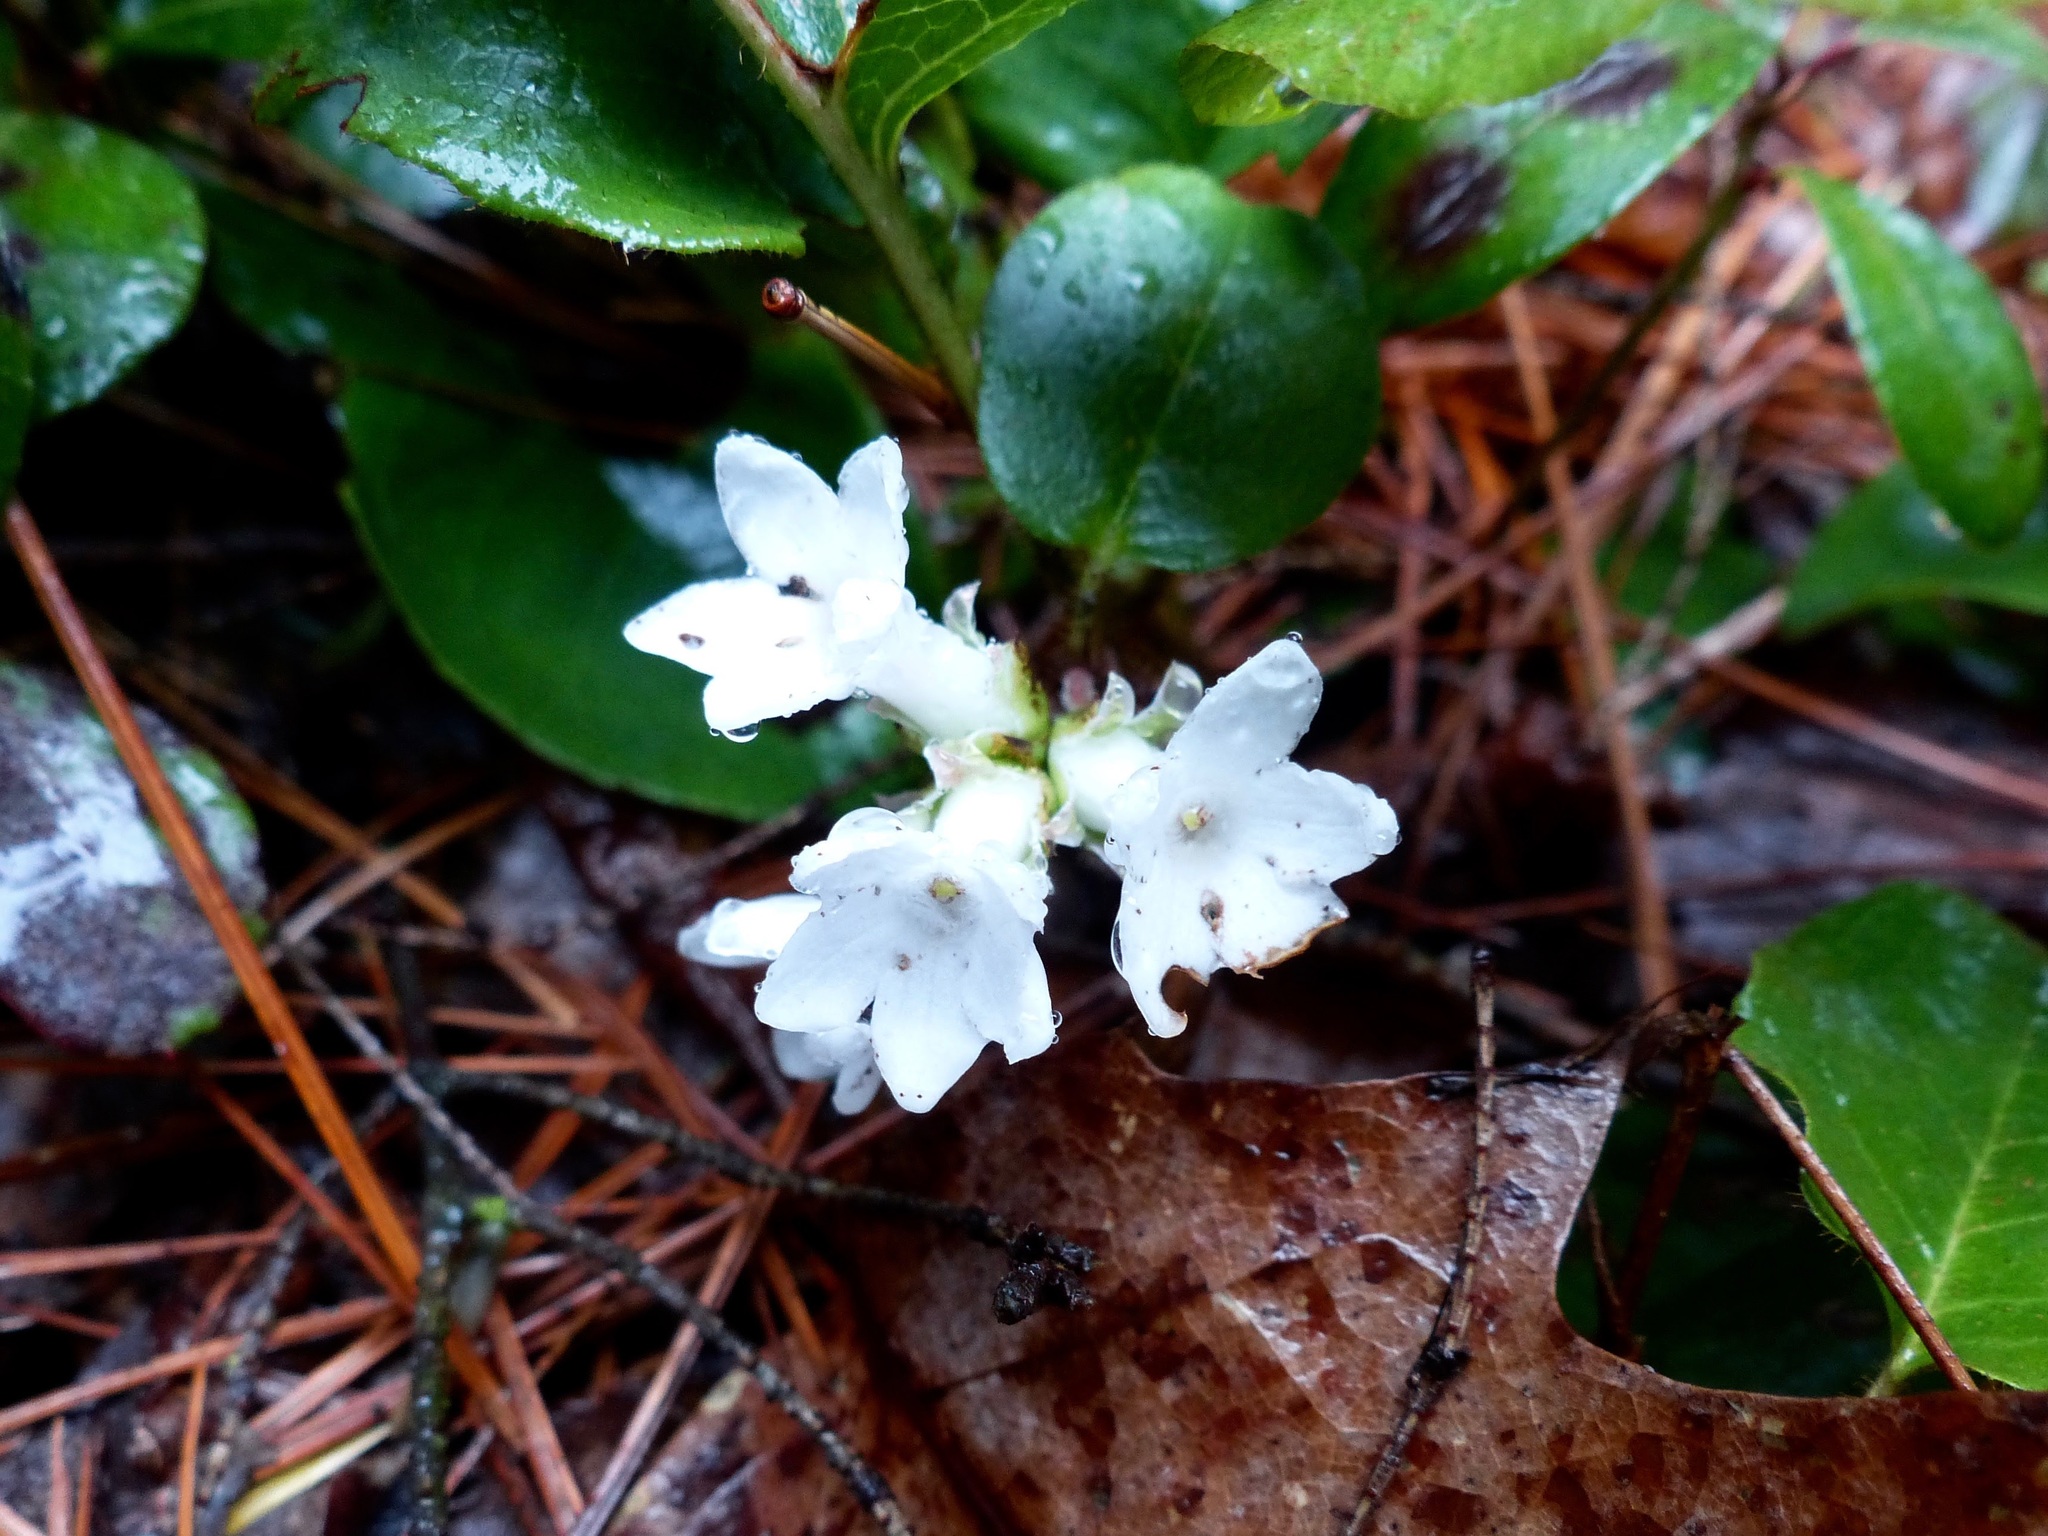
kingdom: Plantae
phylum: Tracheophyta
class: Magnoliopsida
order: Ericales
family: Ericaceae
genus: Epigaea
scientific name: Epigaea repens
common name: Gravelroot
